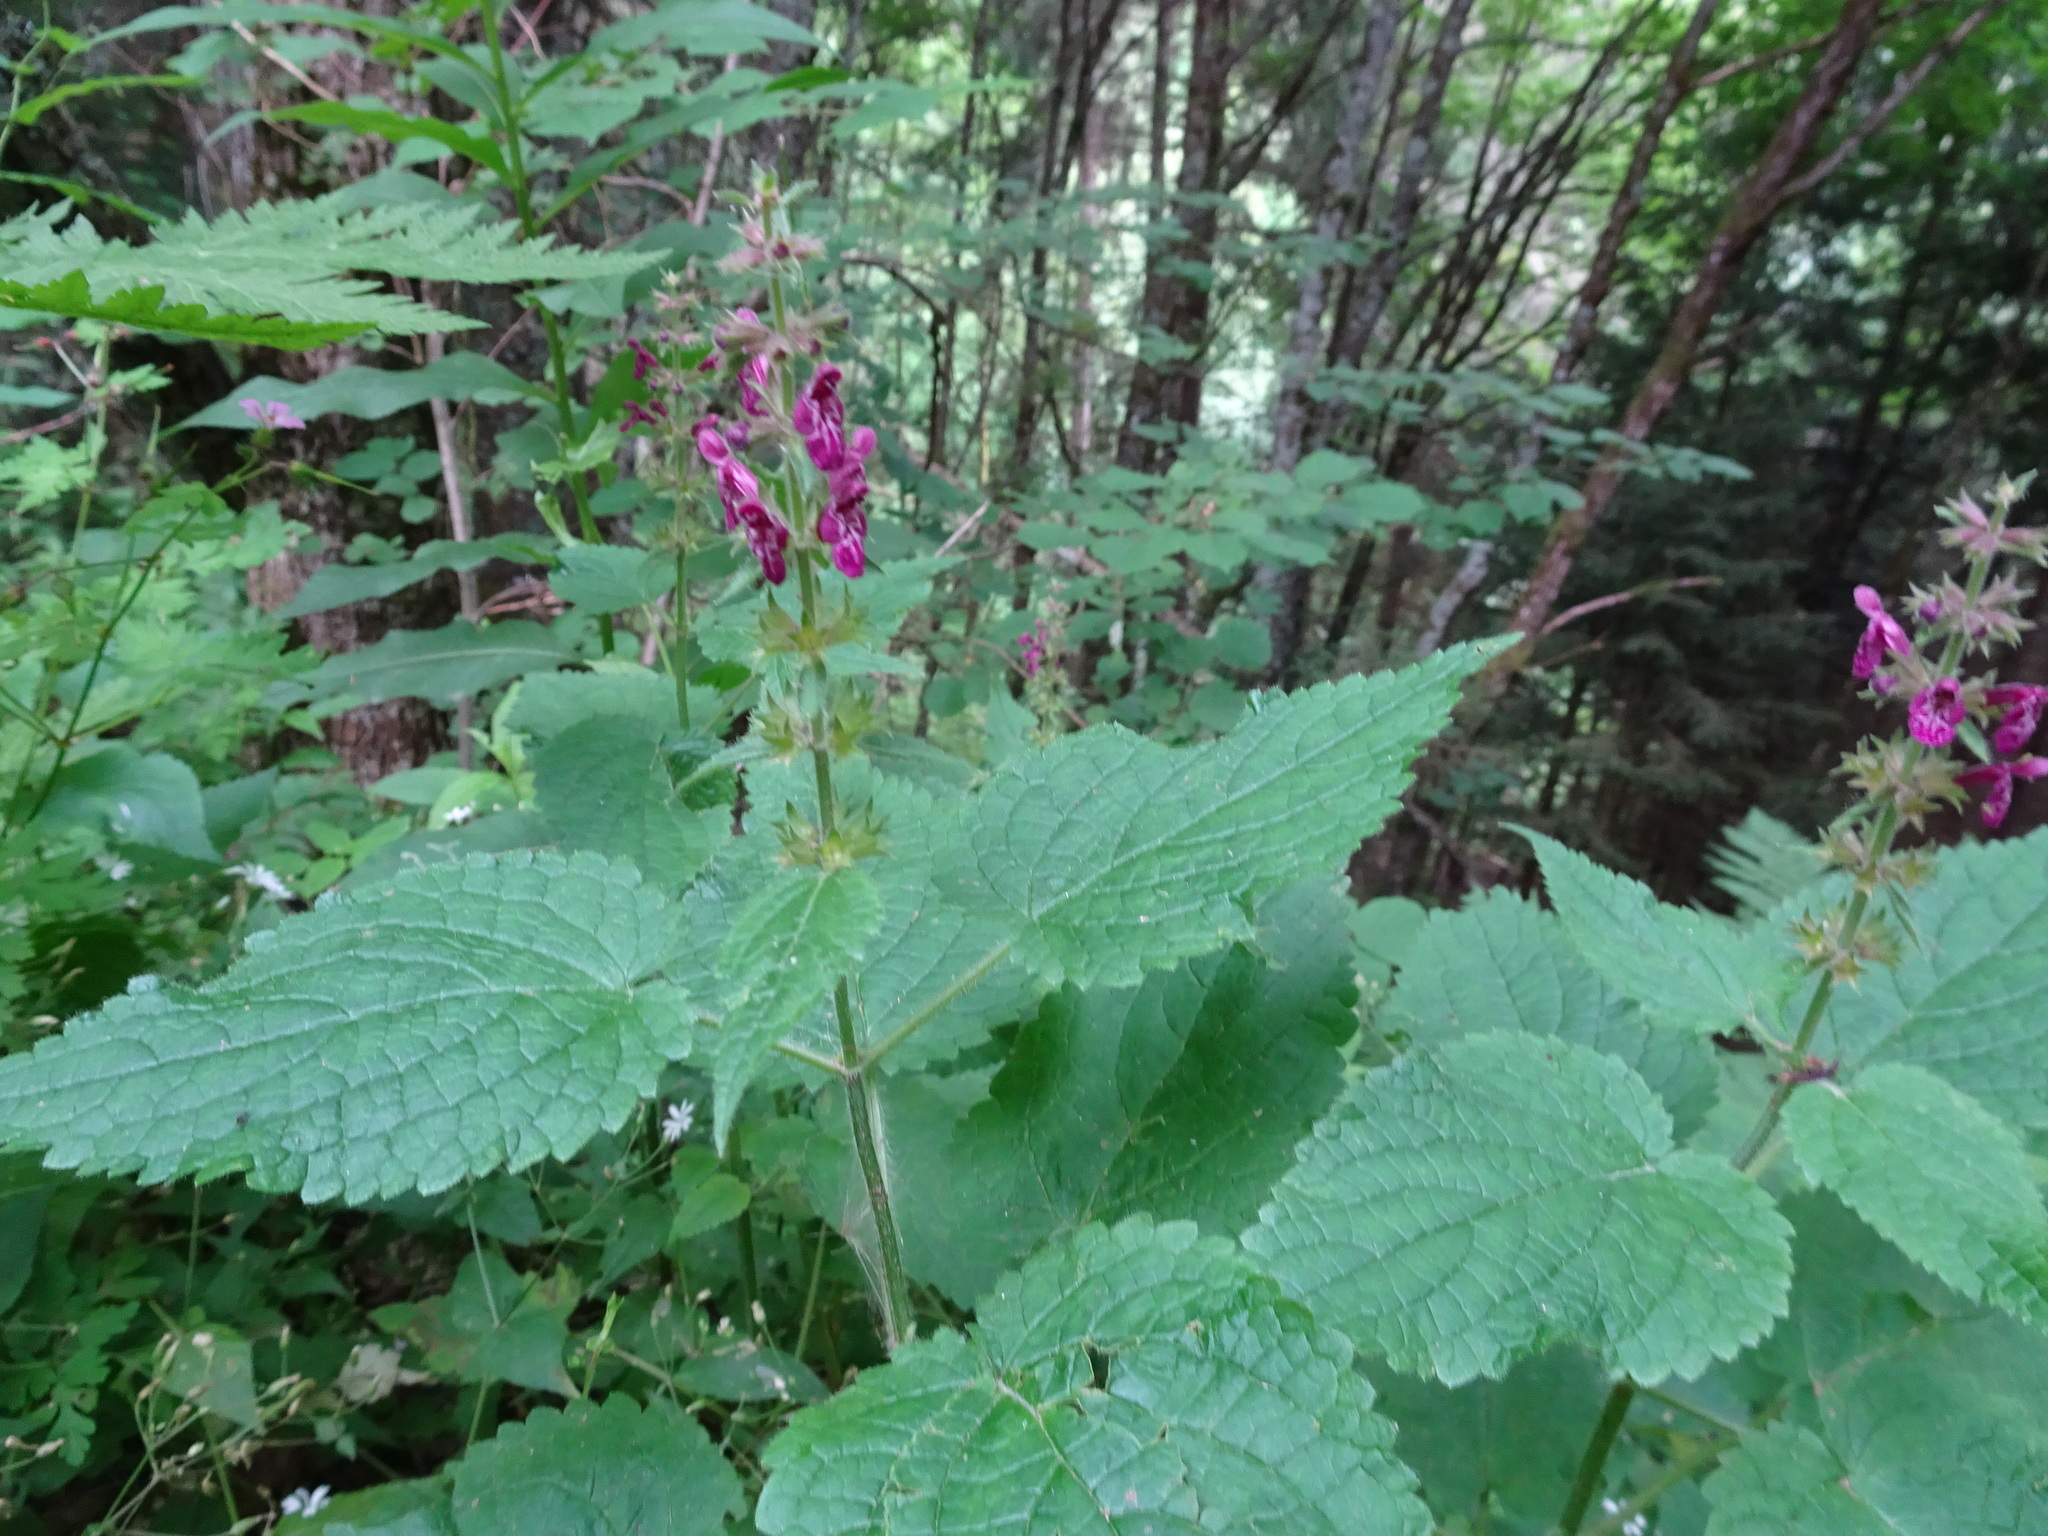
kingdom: Plantae
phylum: Tracheophyta
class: Magnoliopsida
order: Lamiales
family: Lamiaceae
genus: Stachys
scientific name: Stachys sylvatica
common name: Hedge woundwort
